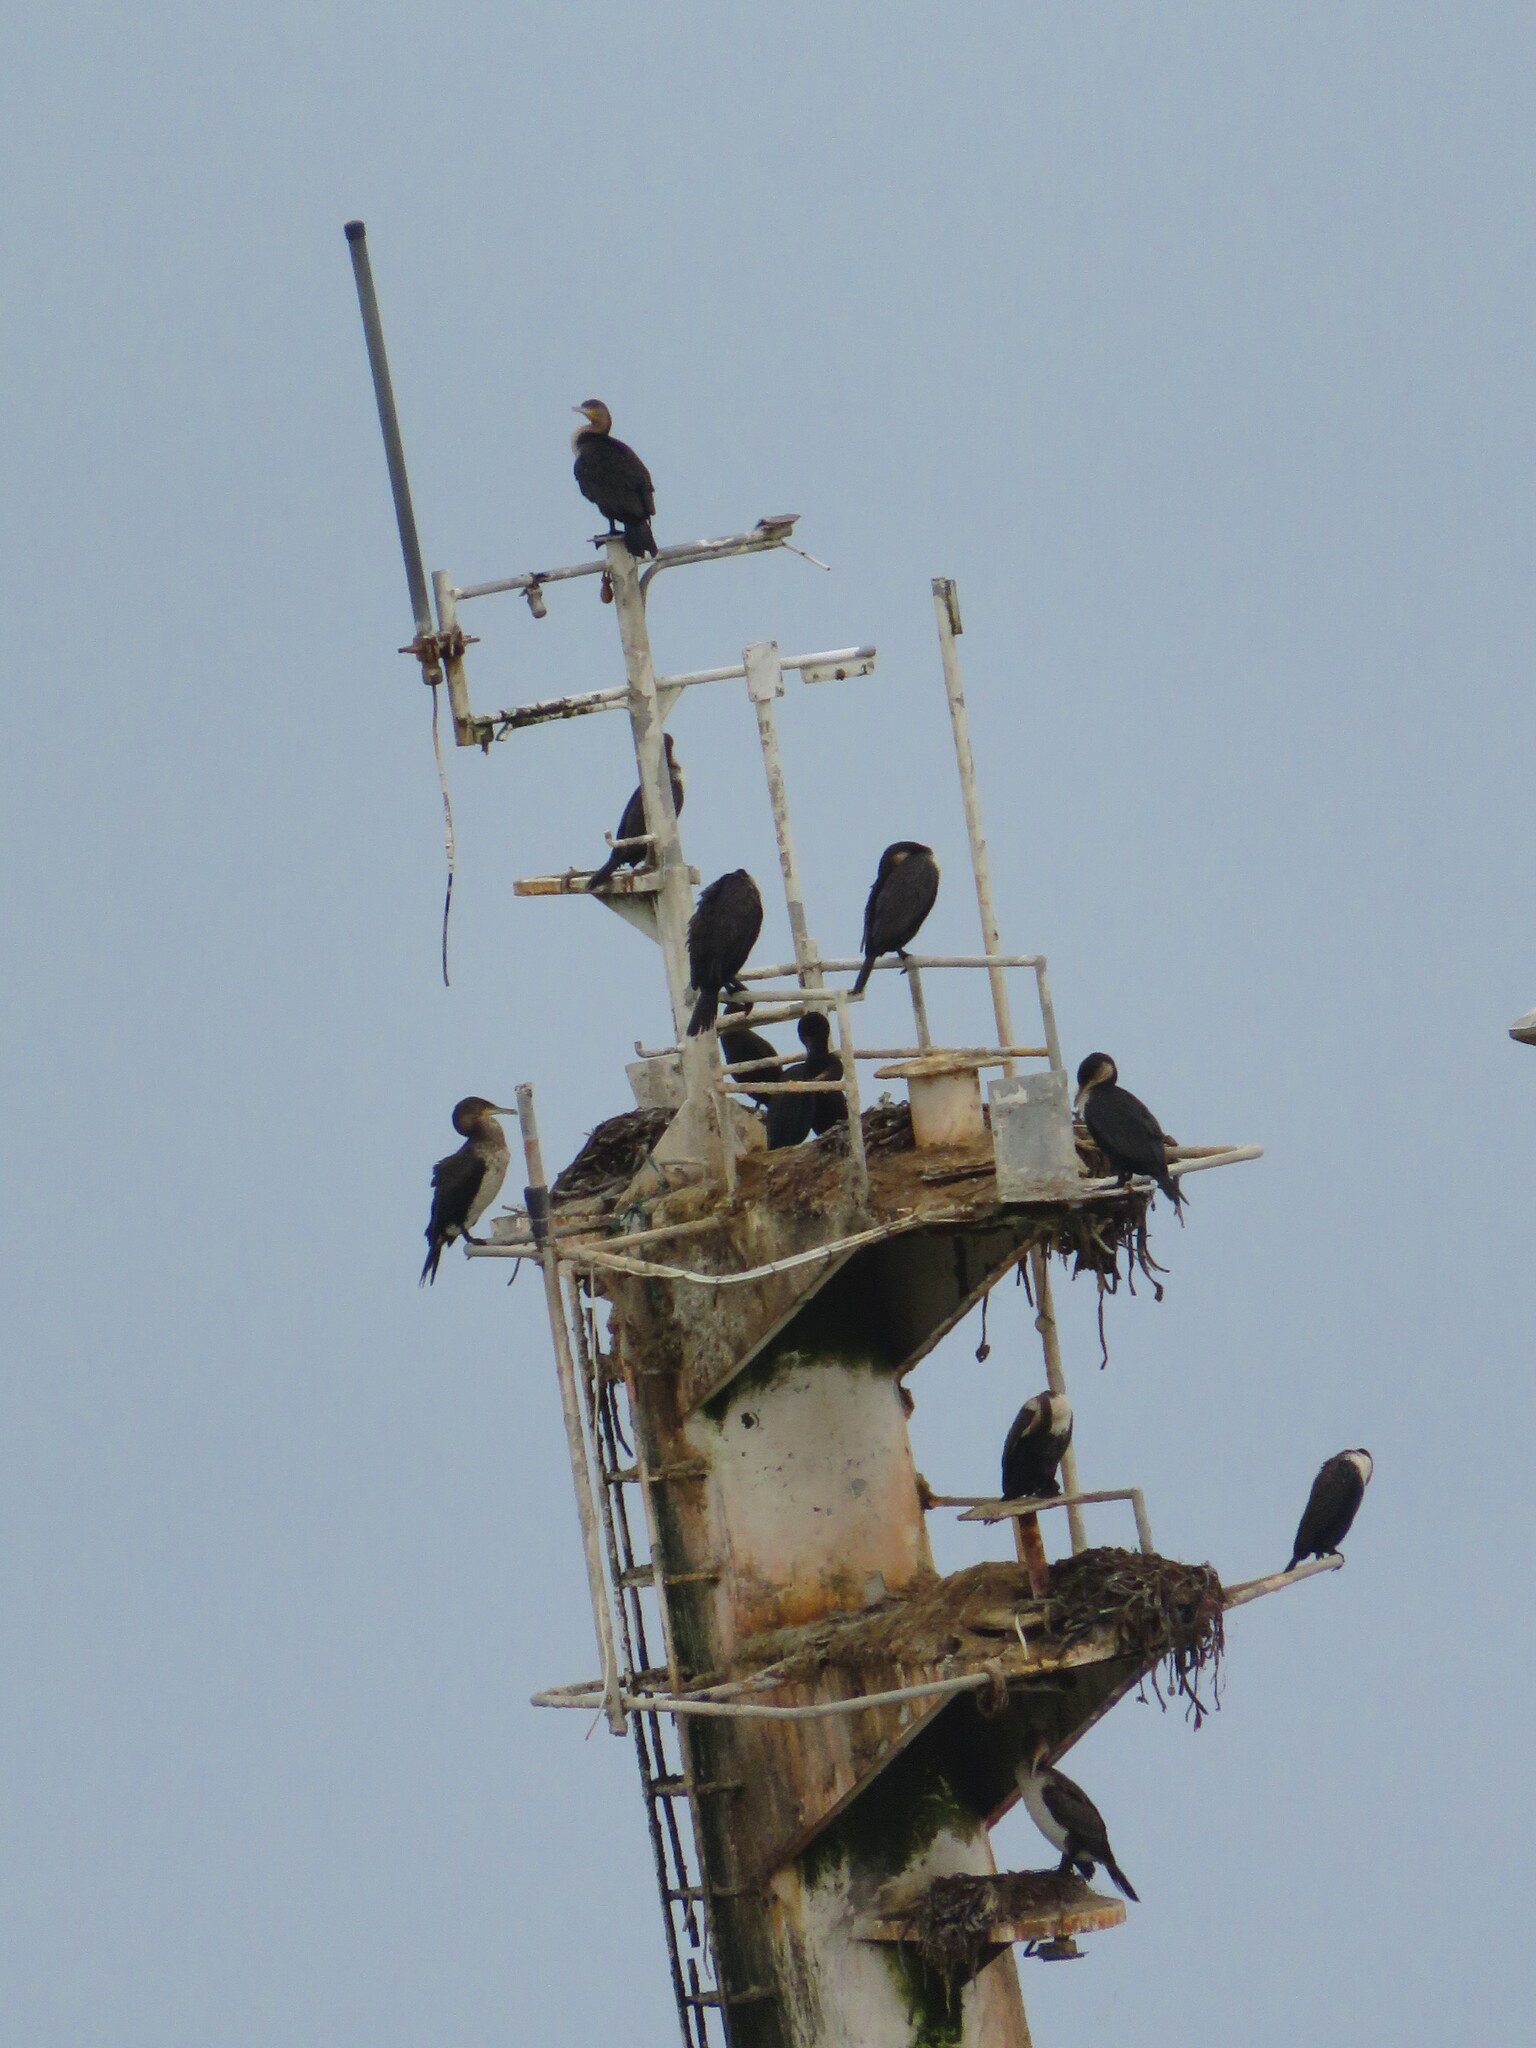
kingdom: Animalia
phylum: Chordata
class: Aves
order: Suliformes
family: Phalacrocoracidae
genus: Phalacrocorax
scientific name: Phalacrocorax carbo
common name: Great cormorant
